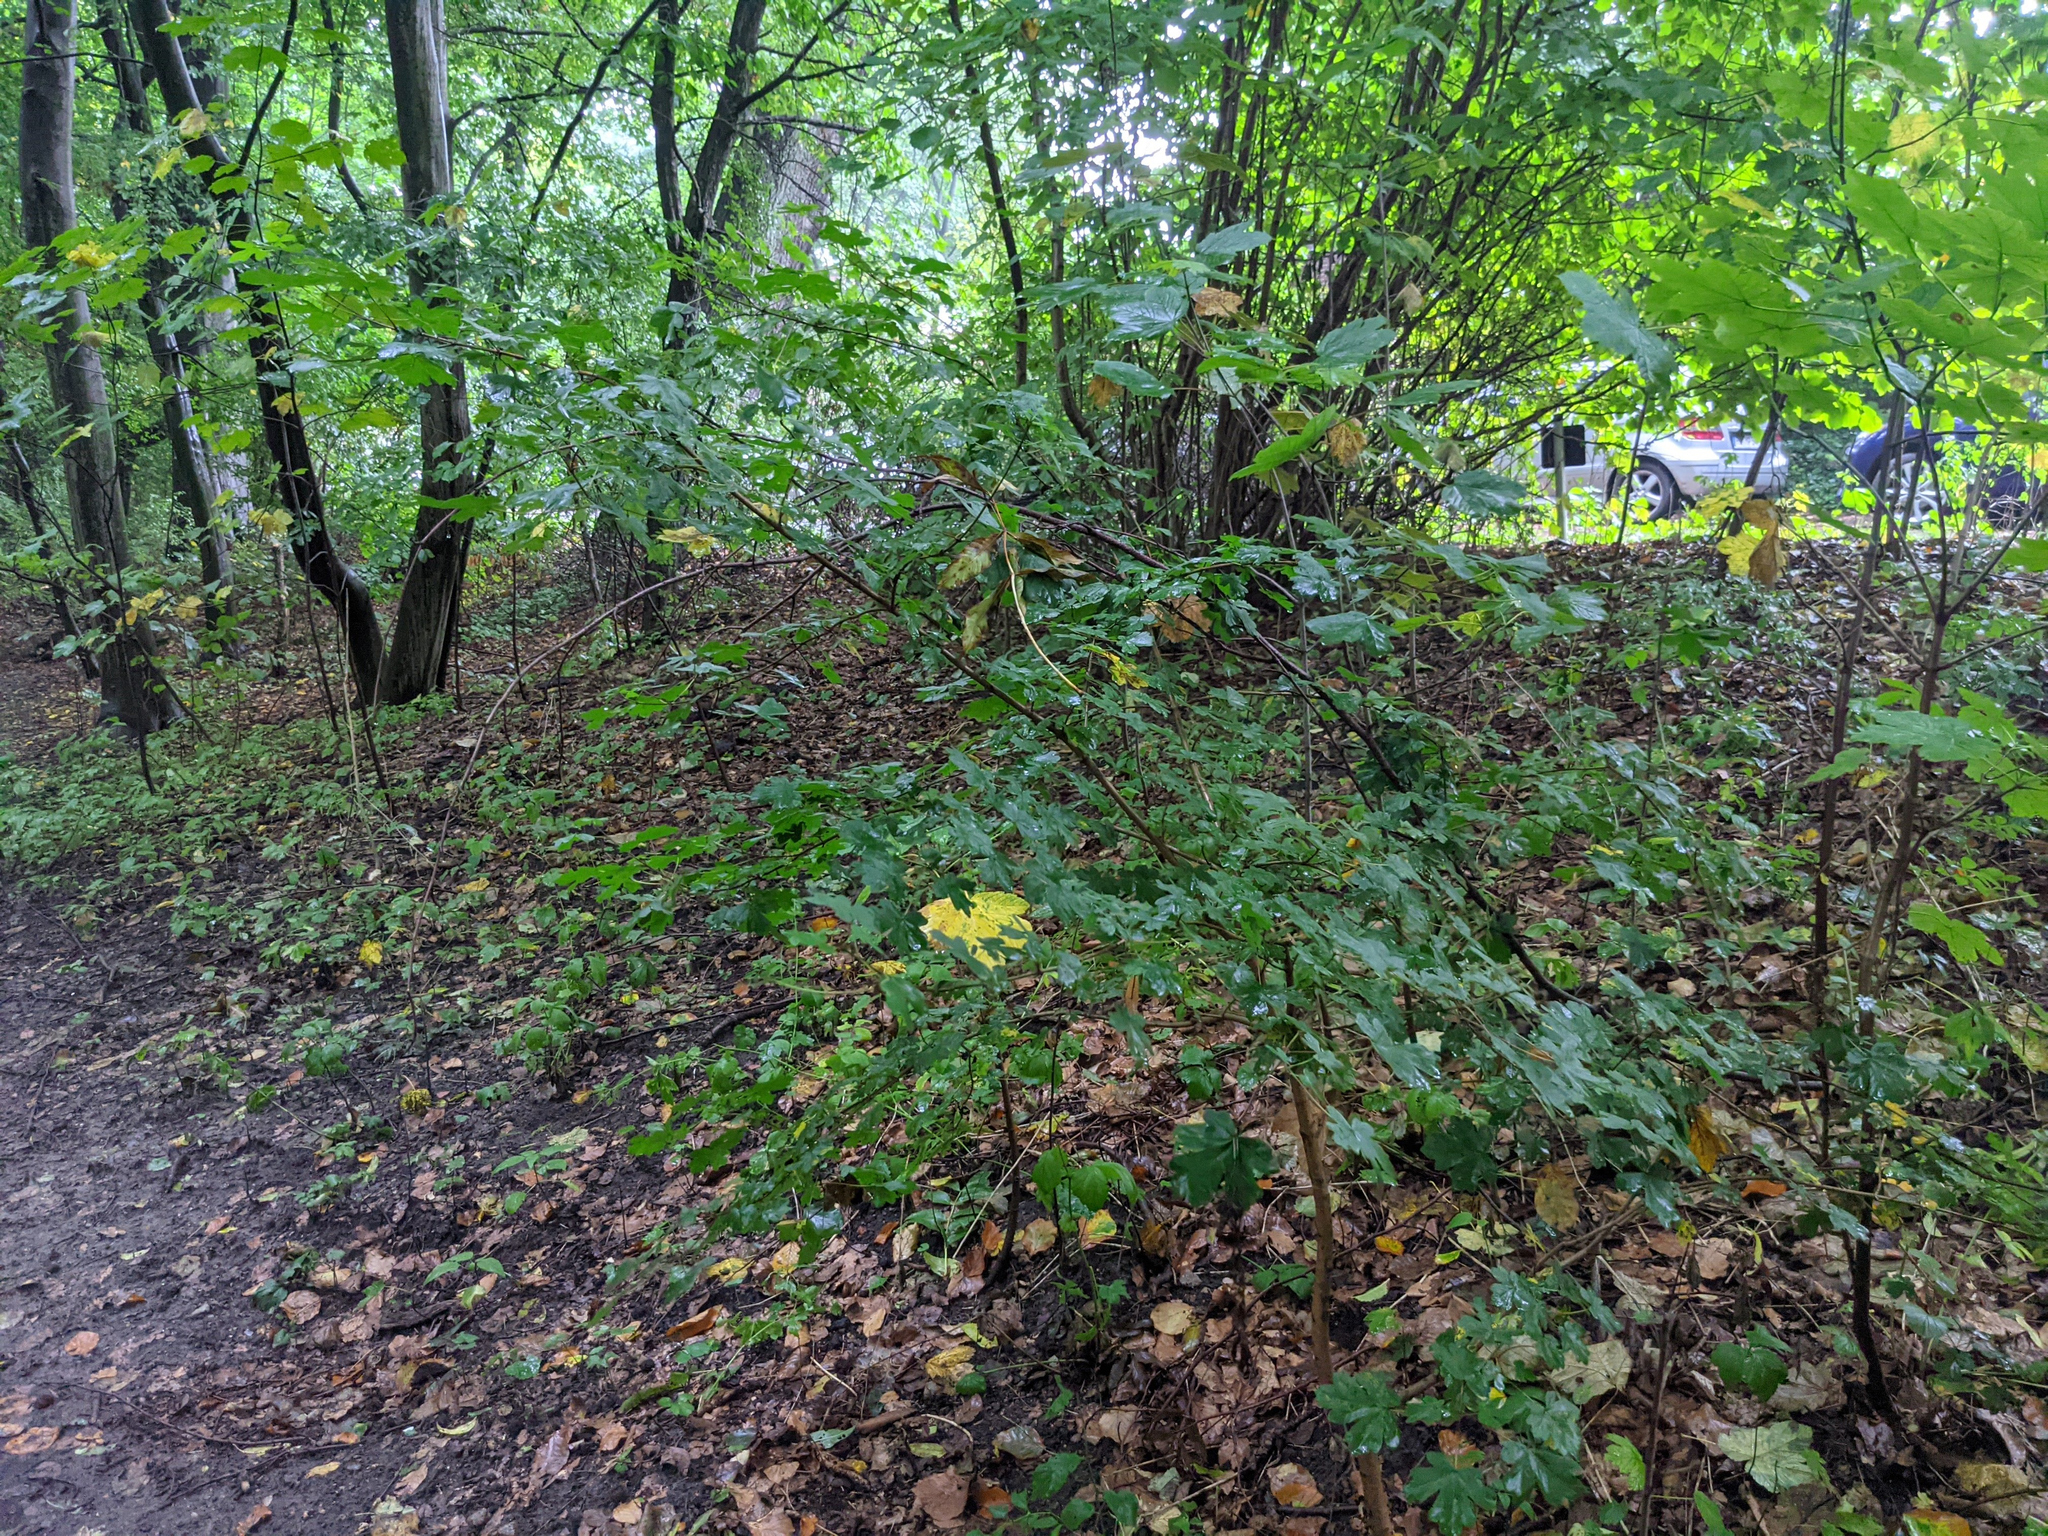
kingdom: Plantae
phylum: Tracheophyta
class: Magnoliopsida
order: Sapindales
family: Sapindaceae
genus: Acer
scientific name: Acer campestre
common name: Field maple
